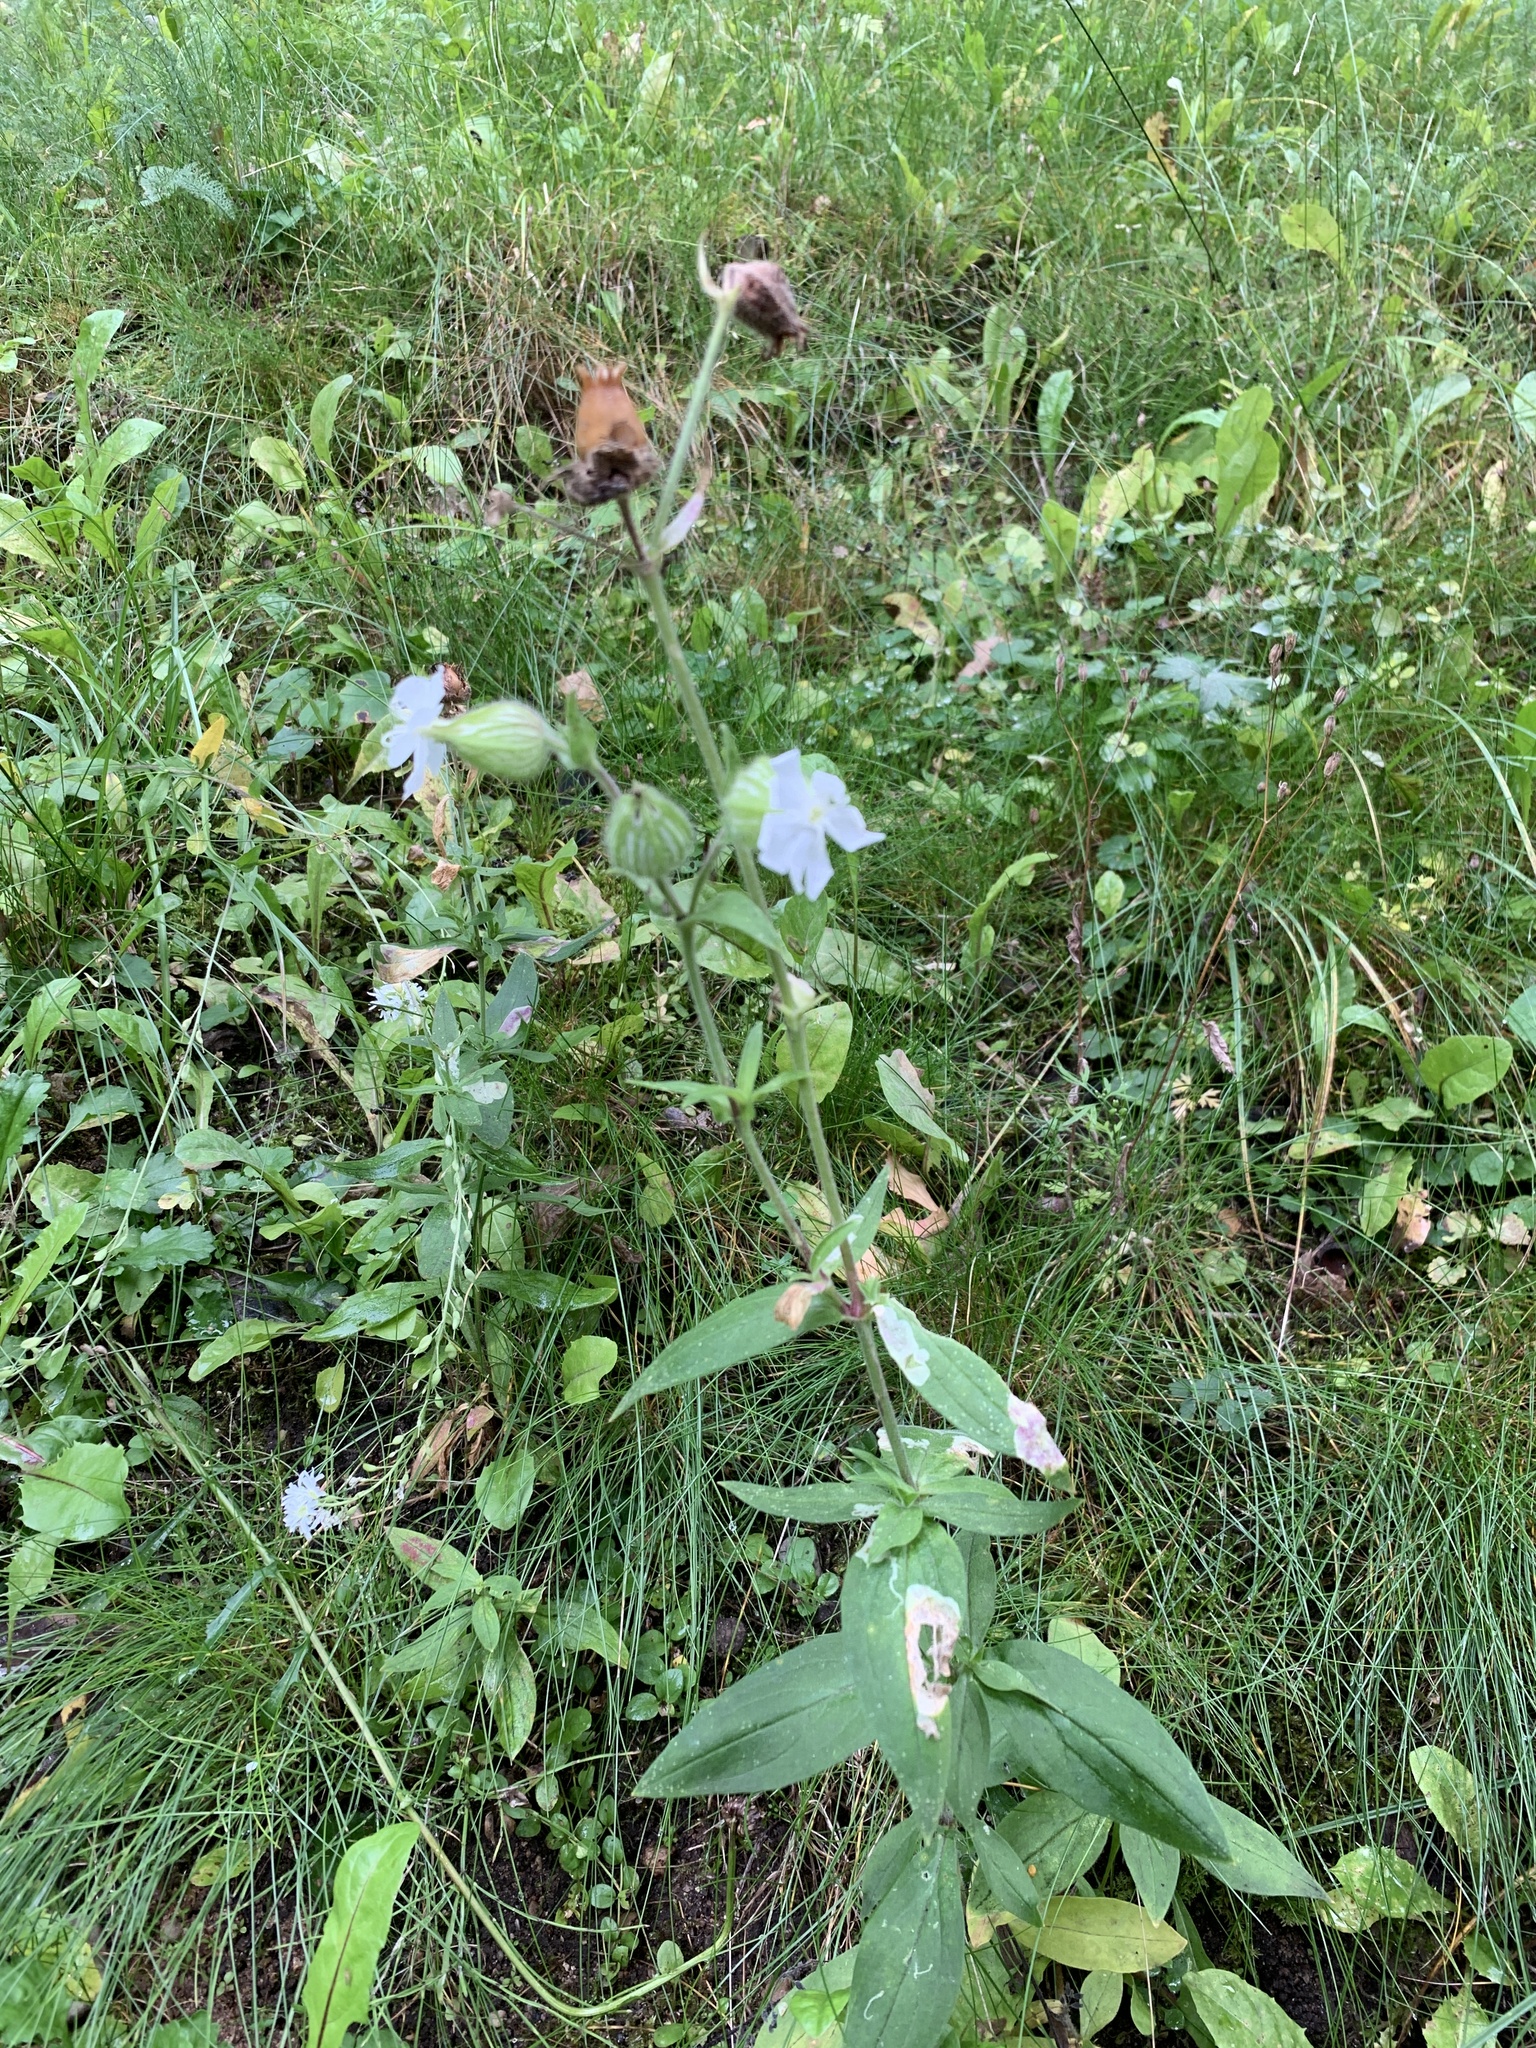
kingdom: Plantae
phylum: Tracheophyta
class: Magnoliopsida
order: Caryophyllales
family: Caryophyllaceae
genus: Silene
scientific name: Silene latifolia
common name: White campion
